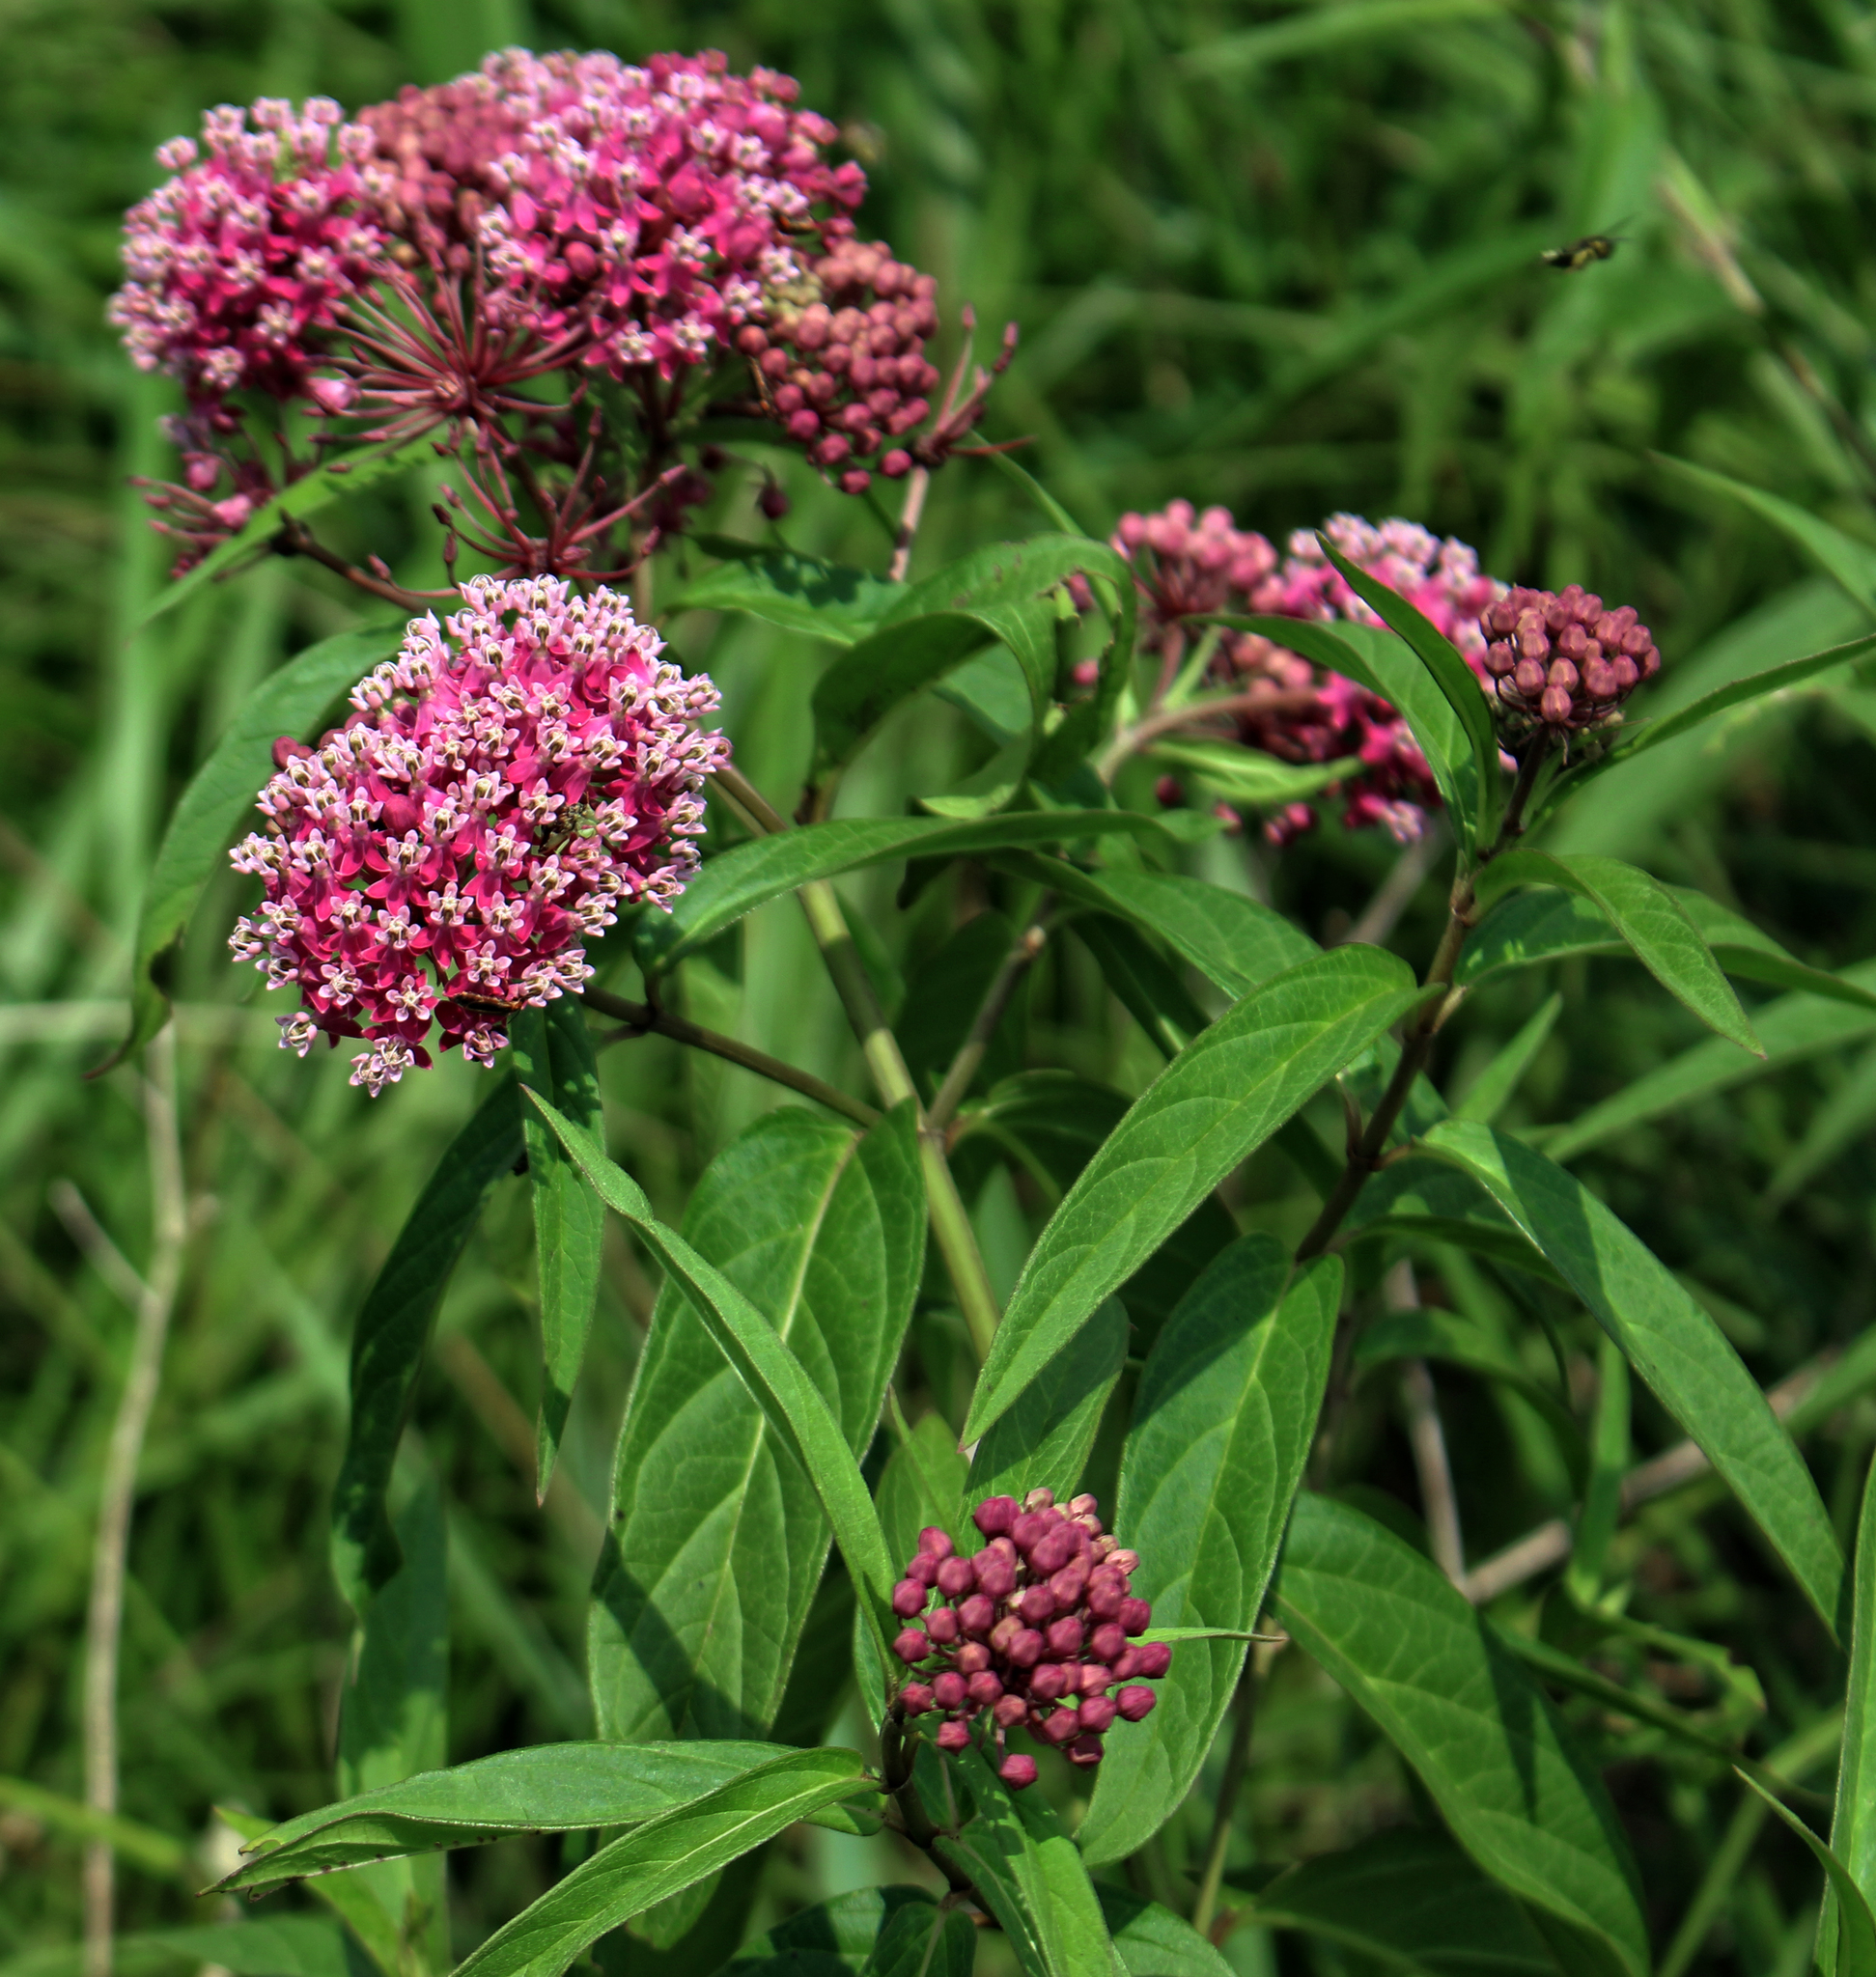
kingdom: Plantae
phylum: Tracheophyta
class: Magnoliopsida
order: Gentianales
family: Apocynaceae
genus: Asclepias
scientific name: Asclepias incarnata
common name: Swamp milkweed
